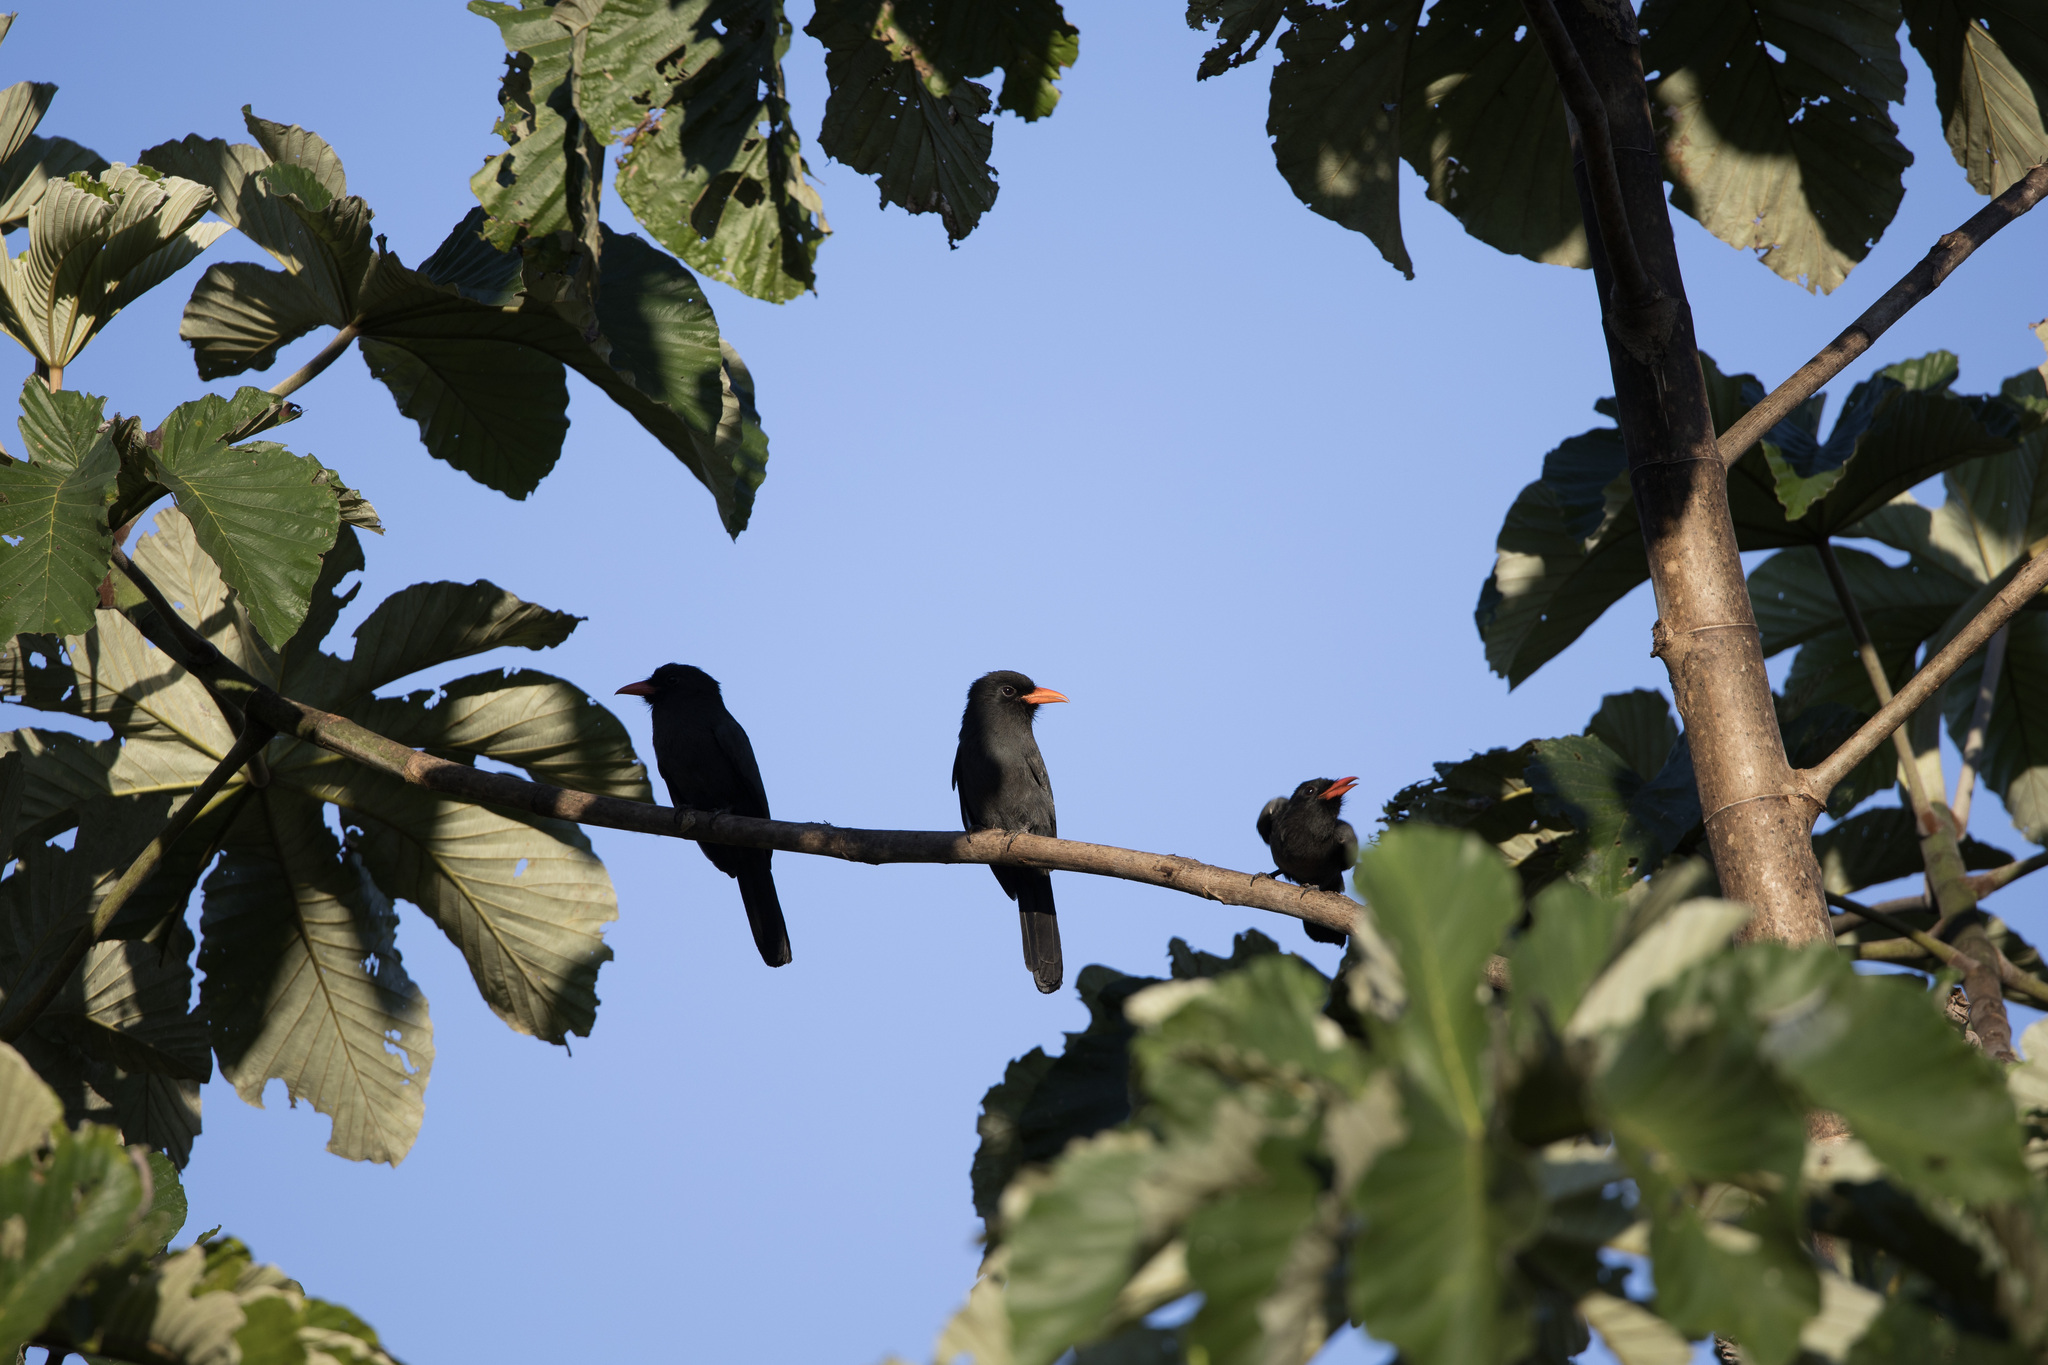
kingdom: Animalia
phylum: Chordata
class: Aves
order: Piciformes
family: Bucconidae
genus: Monasa
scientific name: Monasa nigrifrons
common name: Black-fronted nunbird
